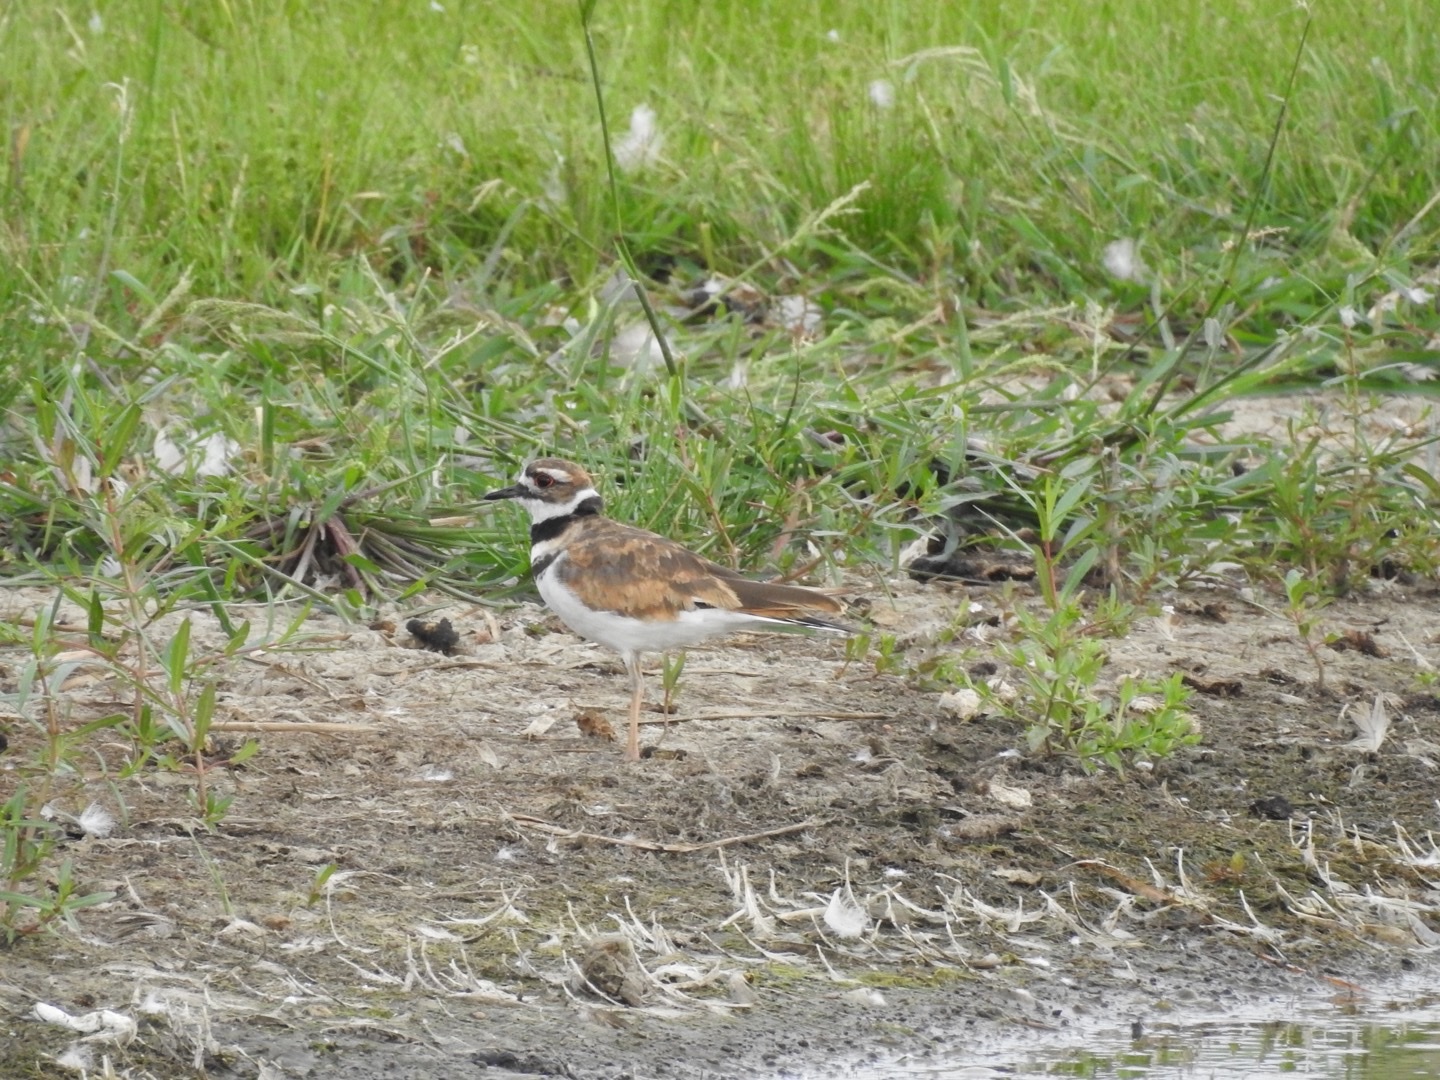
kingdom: Animalia
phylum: Chordata
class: Aves
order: Charadriiformes
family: Charadriidae
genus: Charadrius
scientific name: Charadrius vociferus
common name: Killdeer
